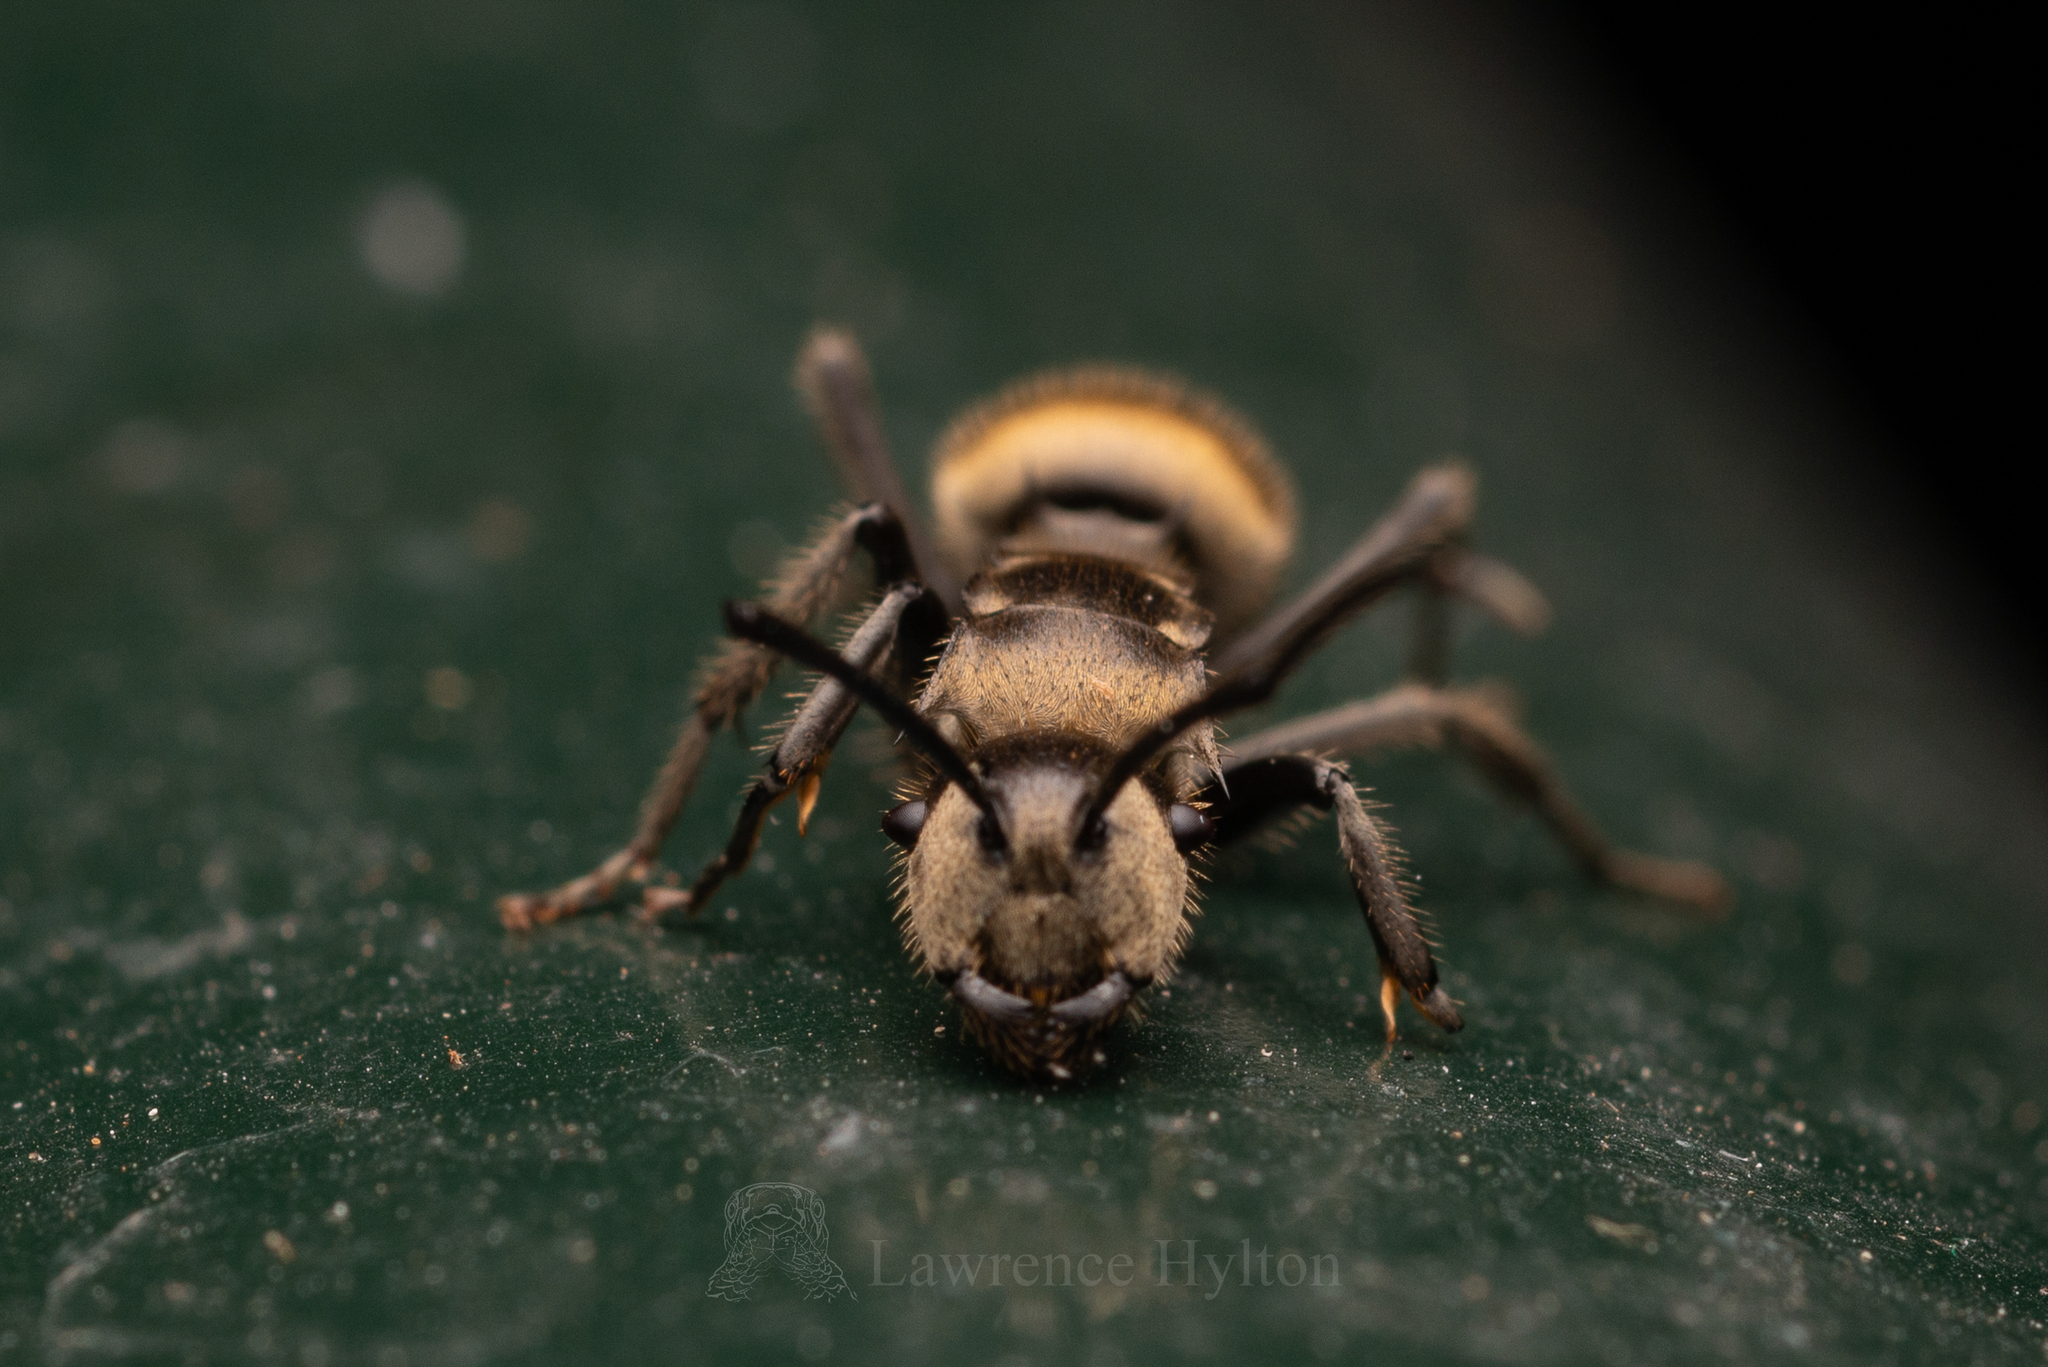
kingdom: Animalia
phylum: Arthropoda
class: Insecta
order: Hymenoptera
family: Formicidae
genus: Polyrhachis
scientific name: Polyrhachis vigilans
